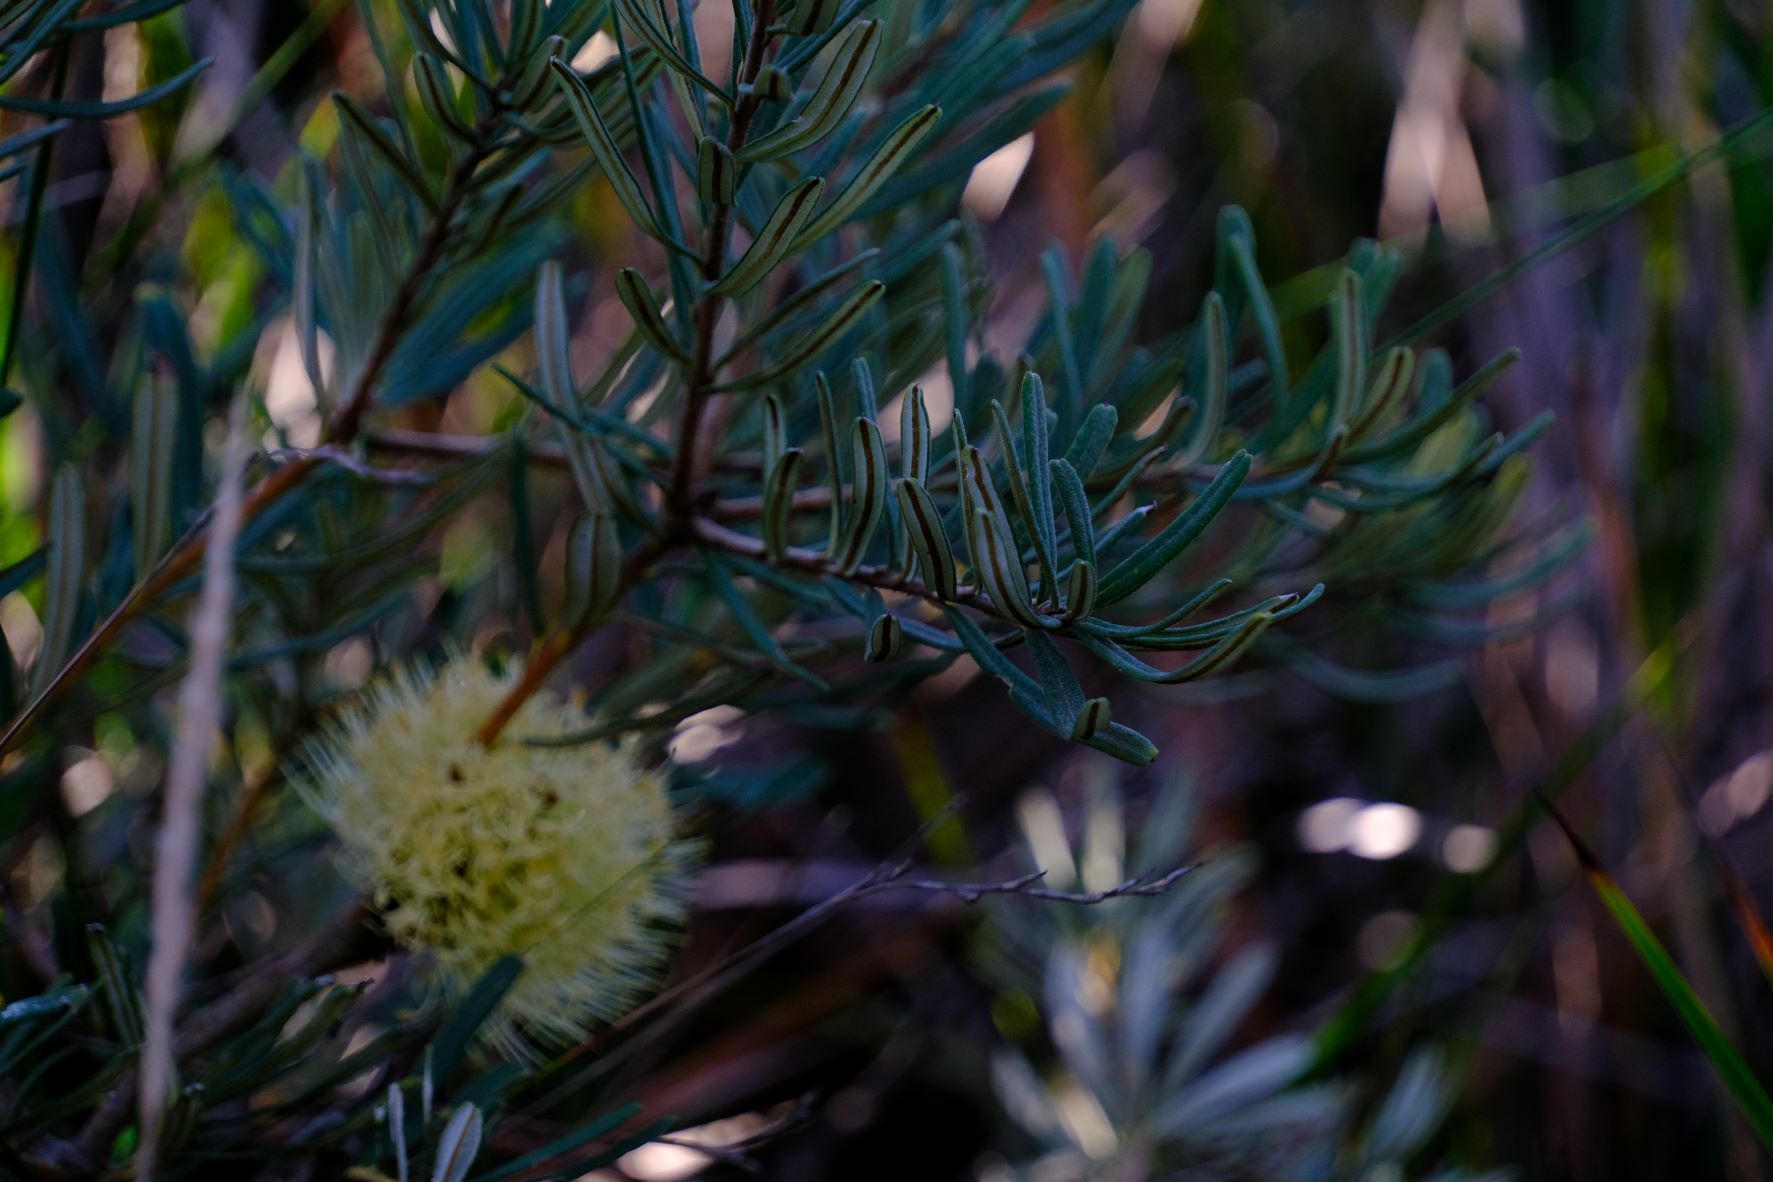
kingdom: Plantae
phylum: Tracheophyta
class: Magnoliopsida
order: Proteales
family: Proteaceae
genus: Banksia
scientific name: Banksia marginata
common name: Silver banksia
